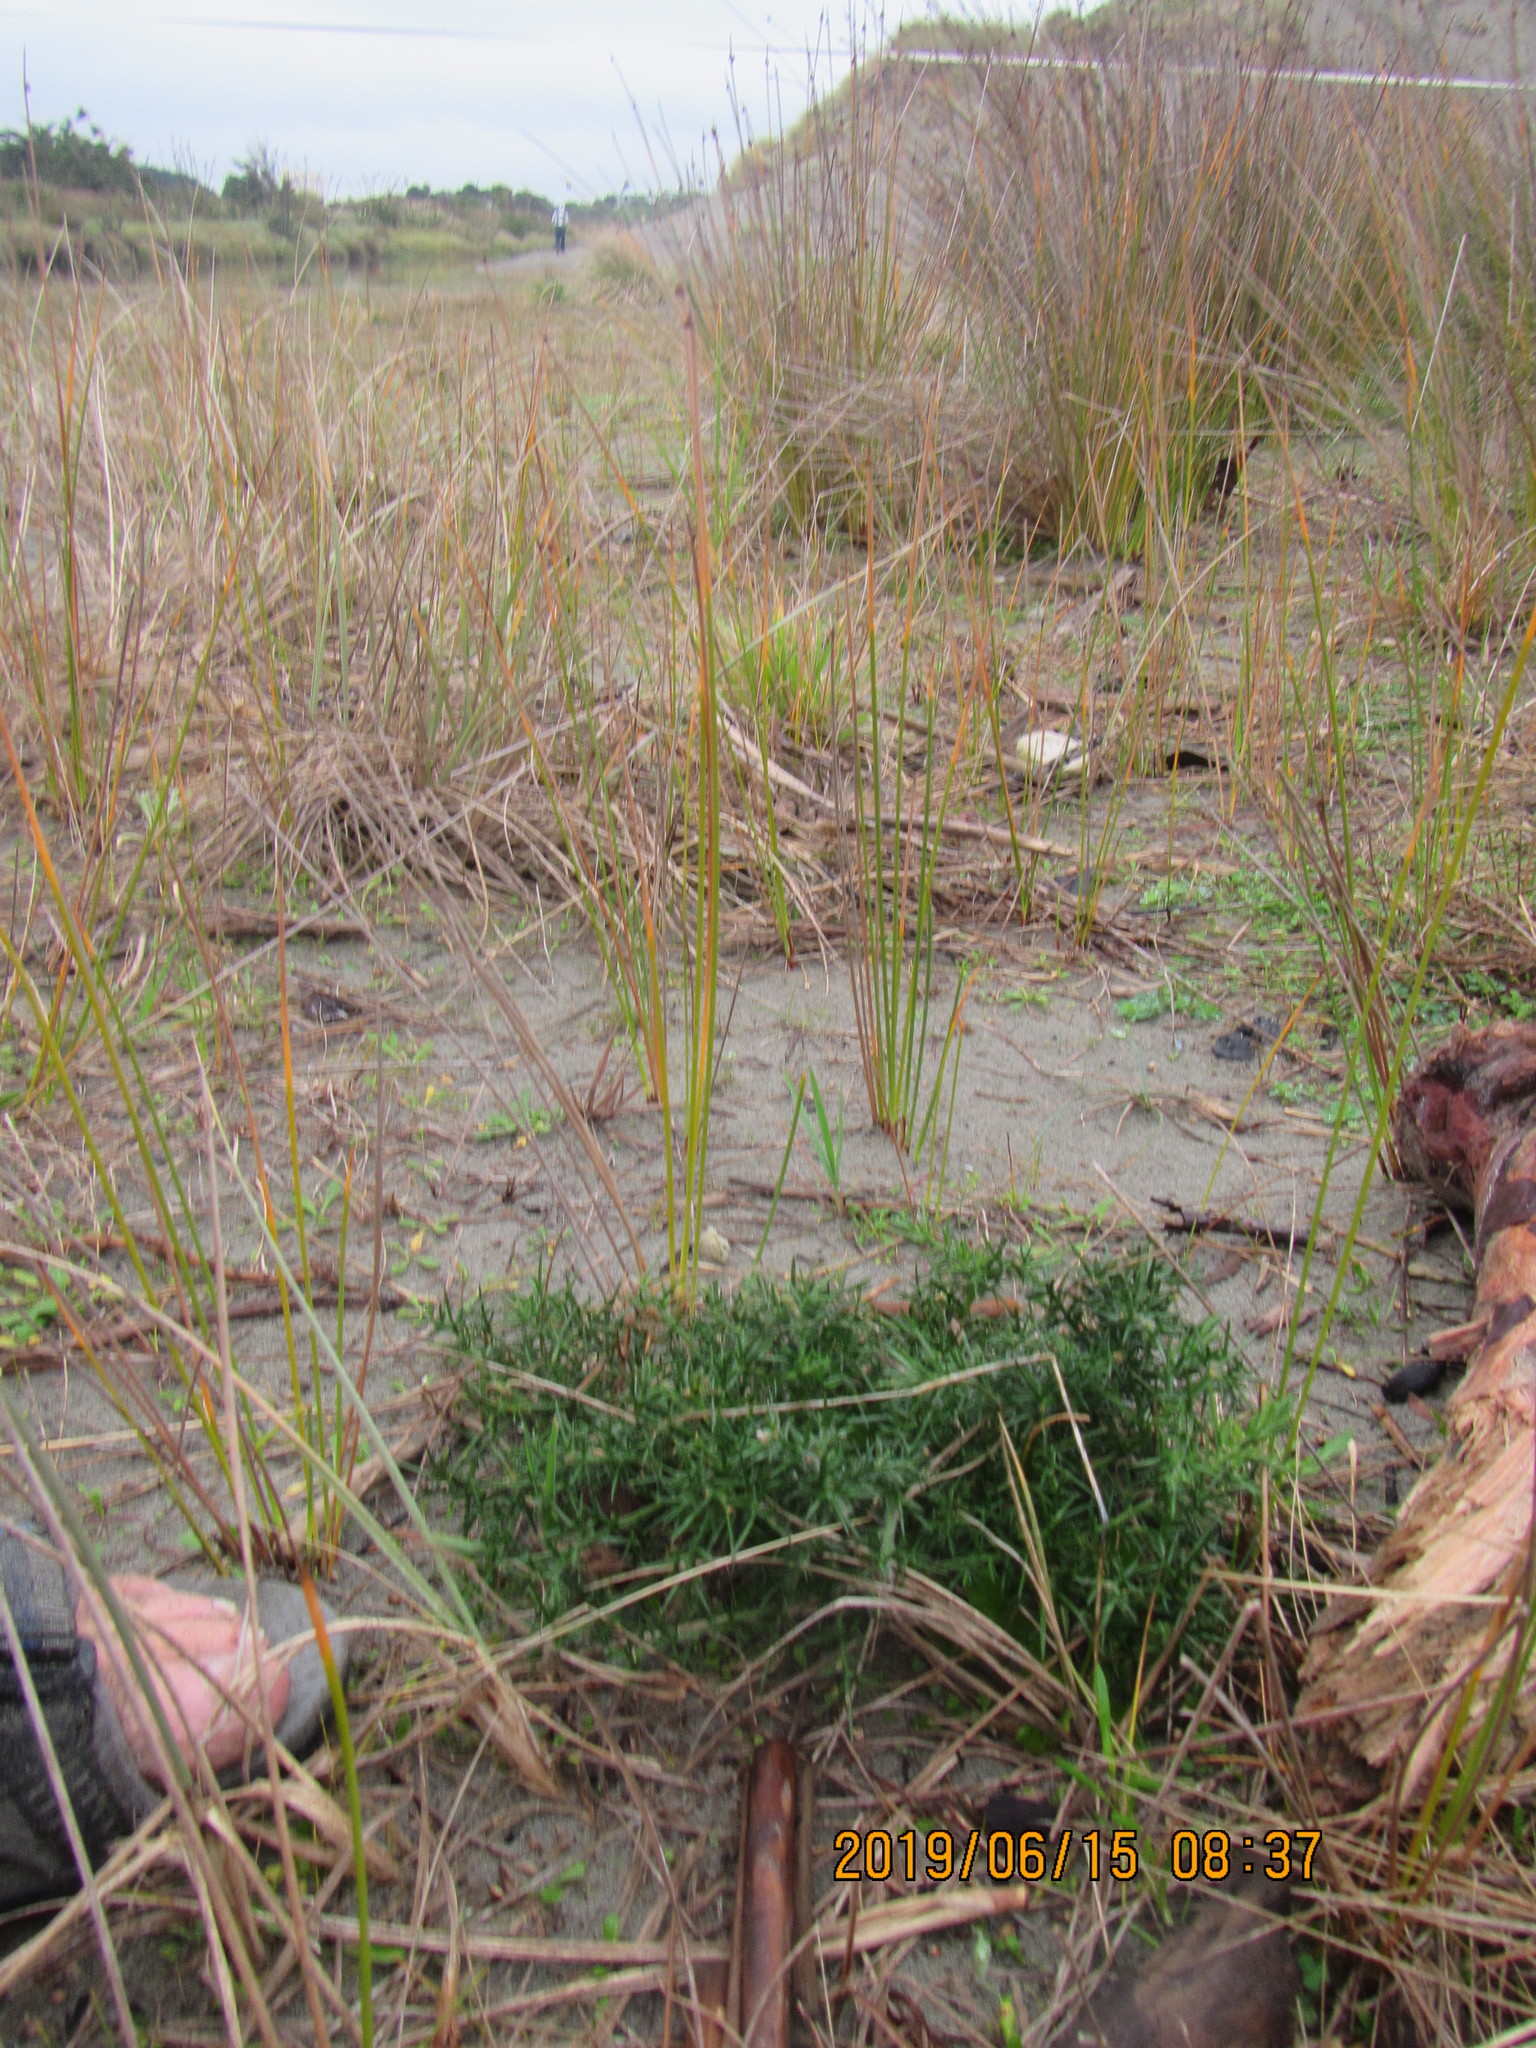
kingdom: Plantae
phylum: Tracheophyta
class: Magnoliopsida
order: Fabales
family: Fabaceae
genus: Ulex
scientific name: Ulex europaeus
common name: Common gorse
